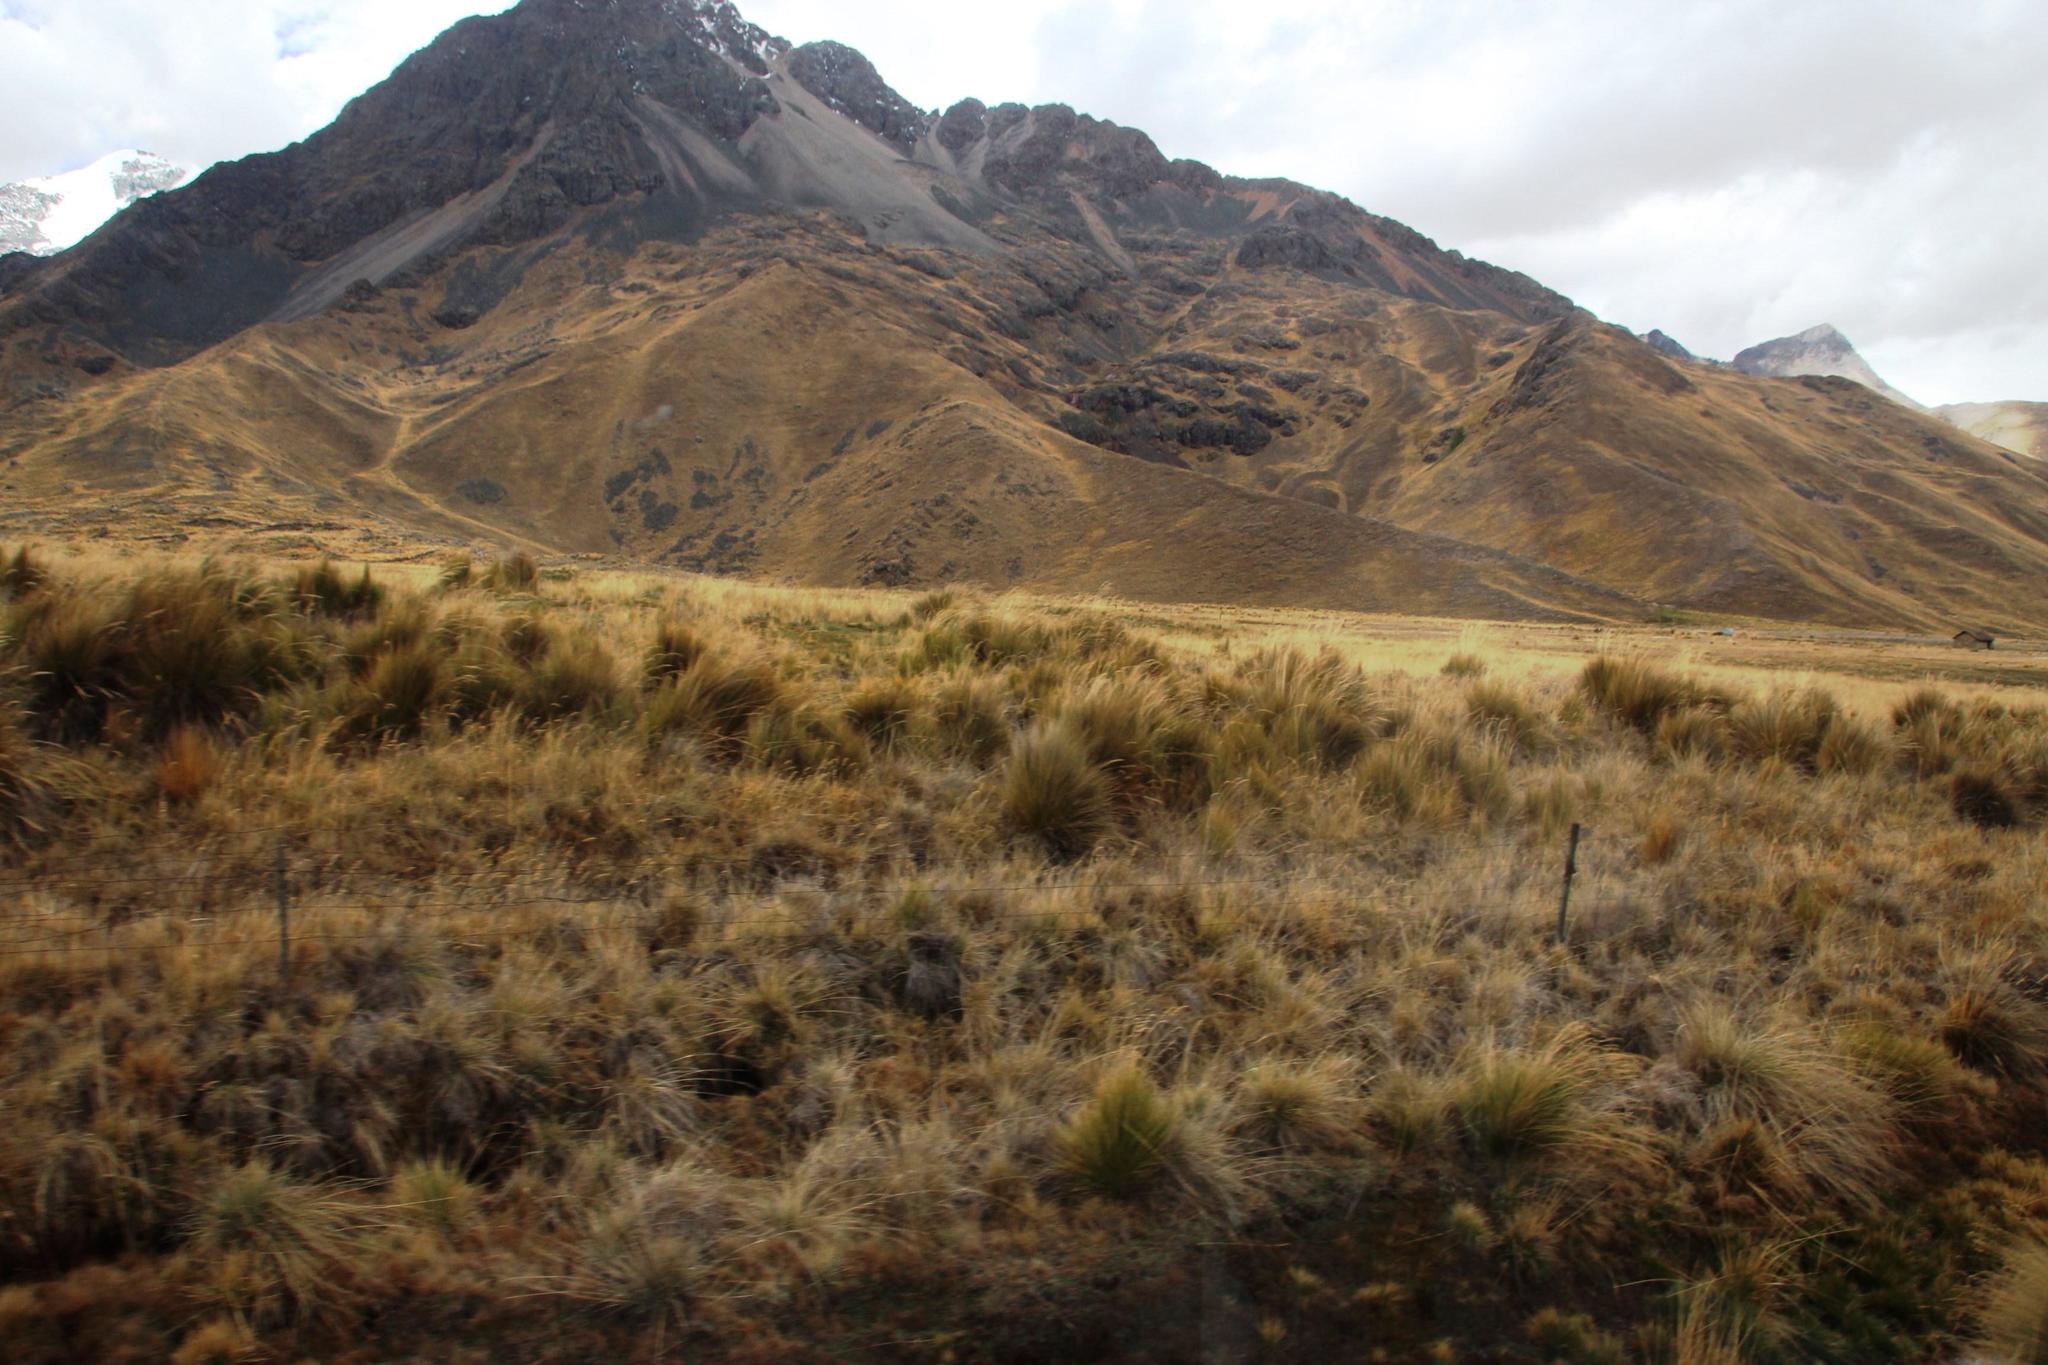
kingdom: Plantae
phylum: Tracheophyta
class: Liliopsida
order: Poales
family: Poaceae
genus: Jarava
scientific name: Jarava ichu
